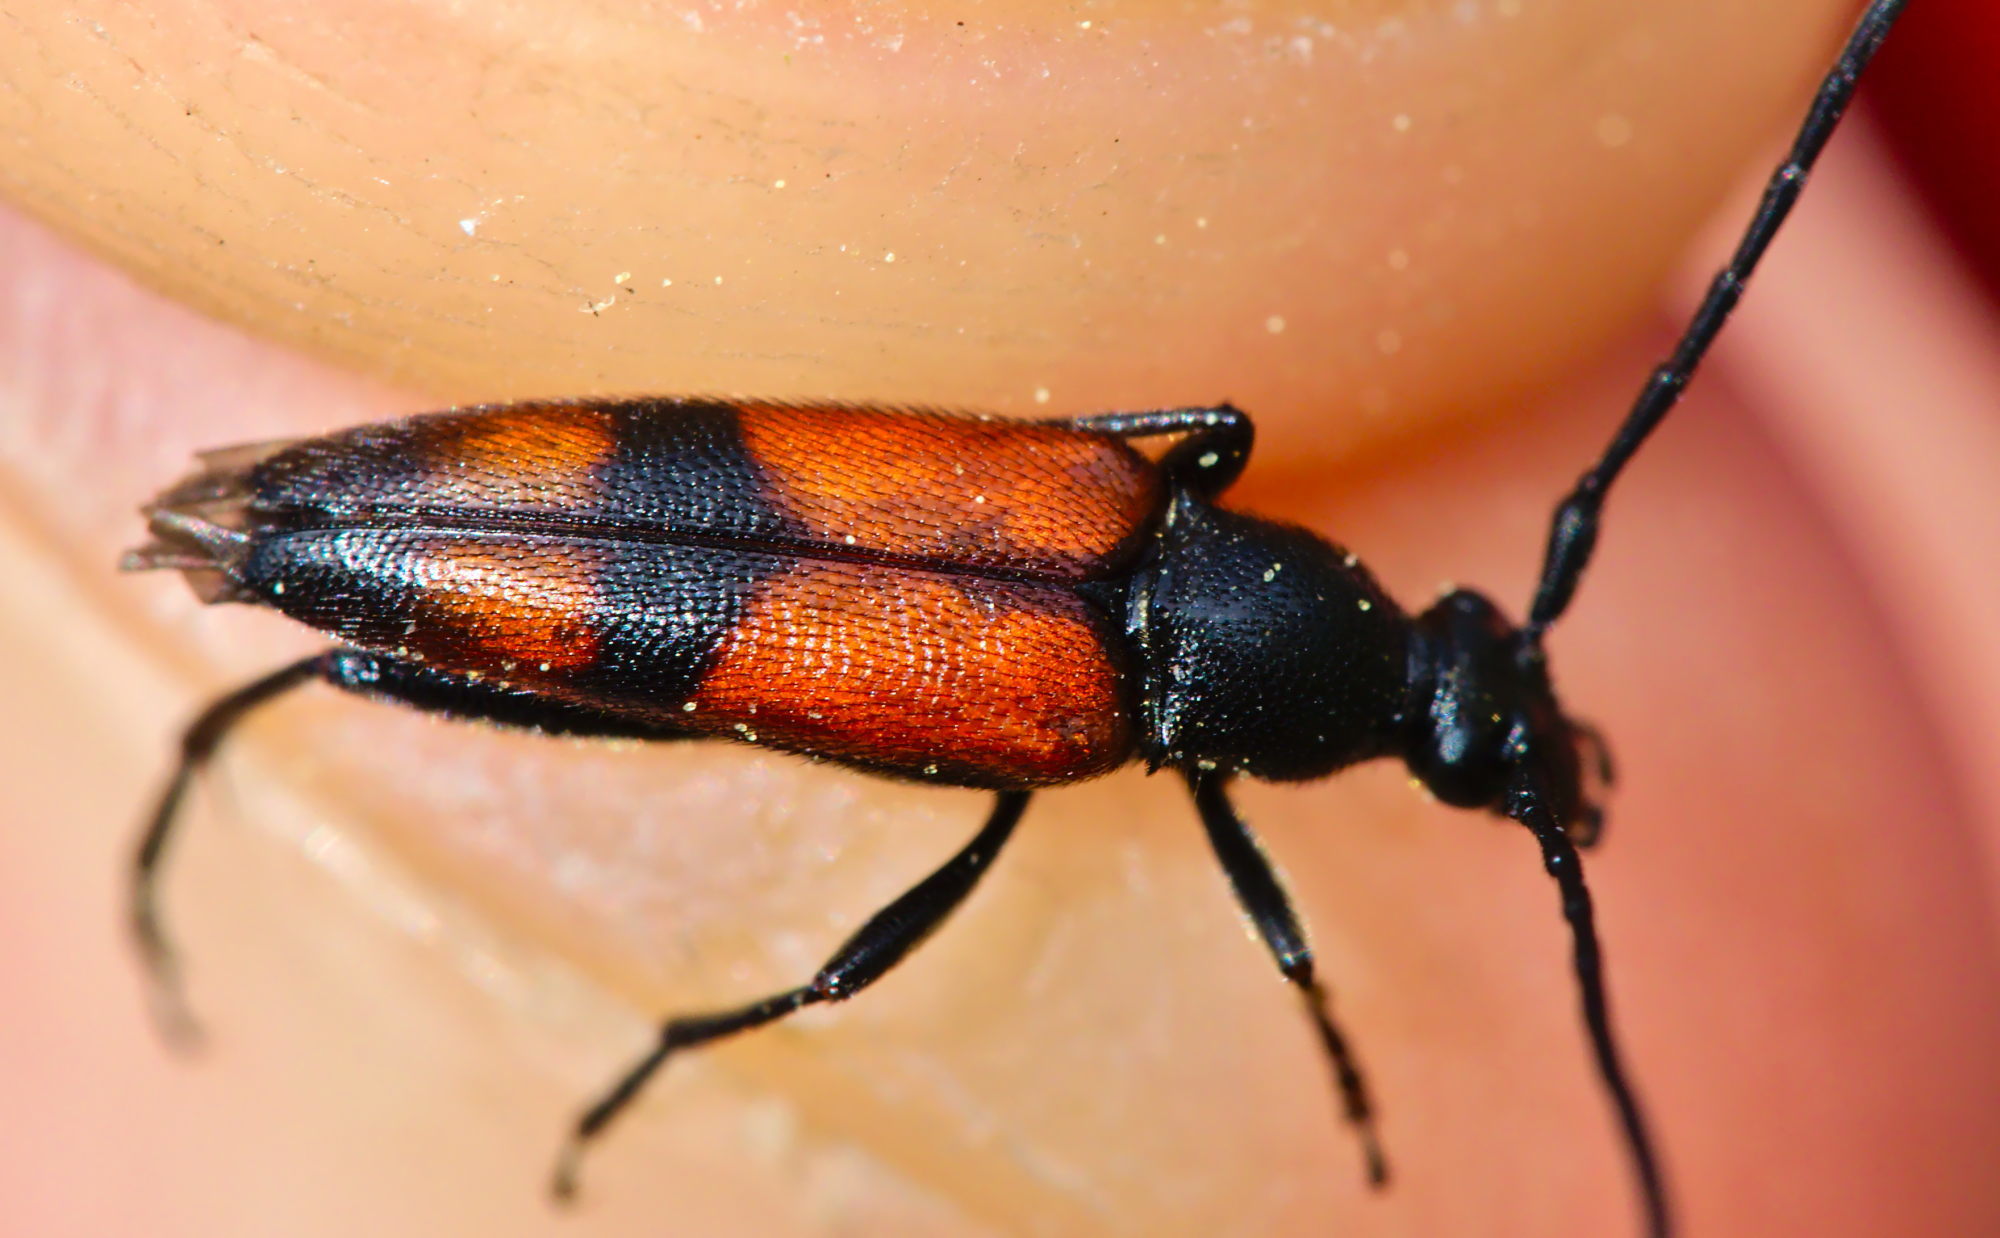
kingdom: Animalia
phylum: Arthropoda
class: Insecta
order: Coleoptera
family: Cerambycidae
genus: Stenurella
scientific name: Stenurella bifasciata
